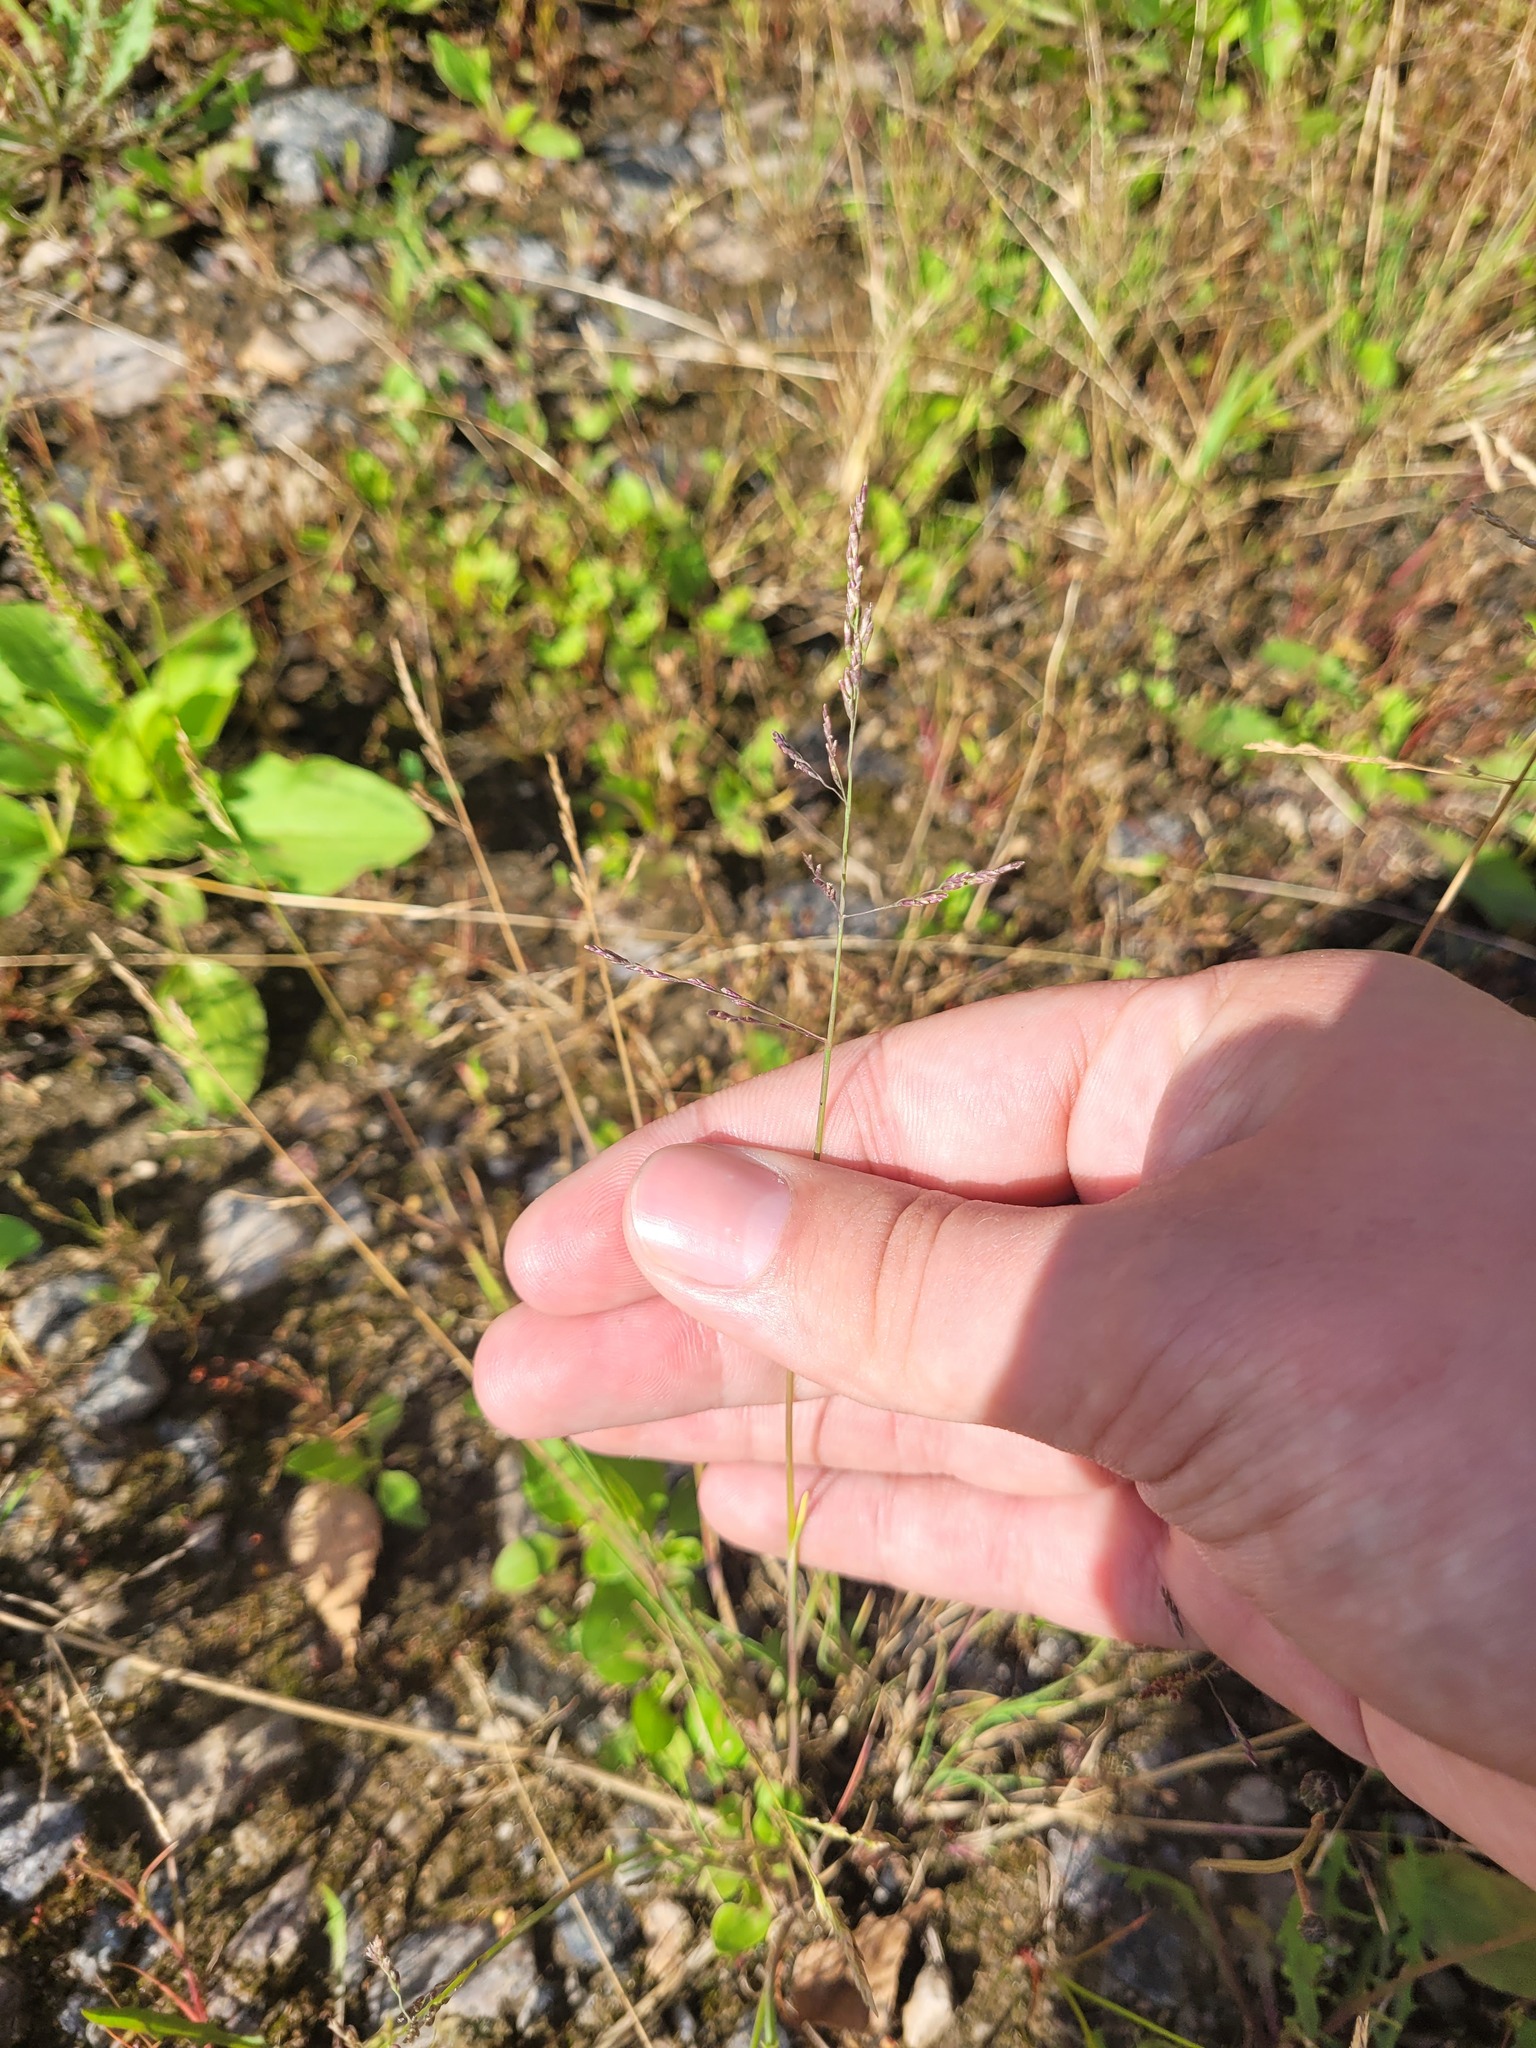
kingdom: Plantae
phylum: Tracheophyta
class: Liliopsida
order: Poales
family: Poaceae
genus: Puccinellia
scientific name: Puccinellia distans
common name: Weeping alkaligrass
